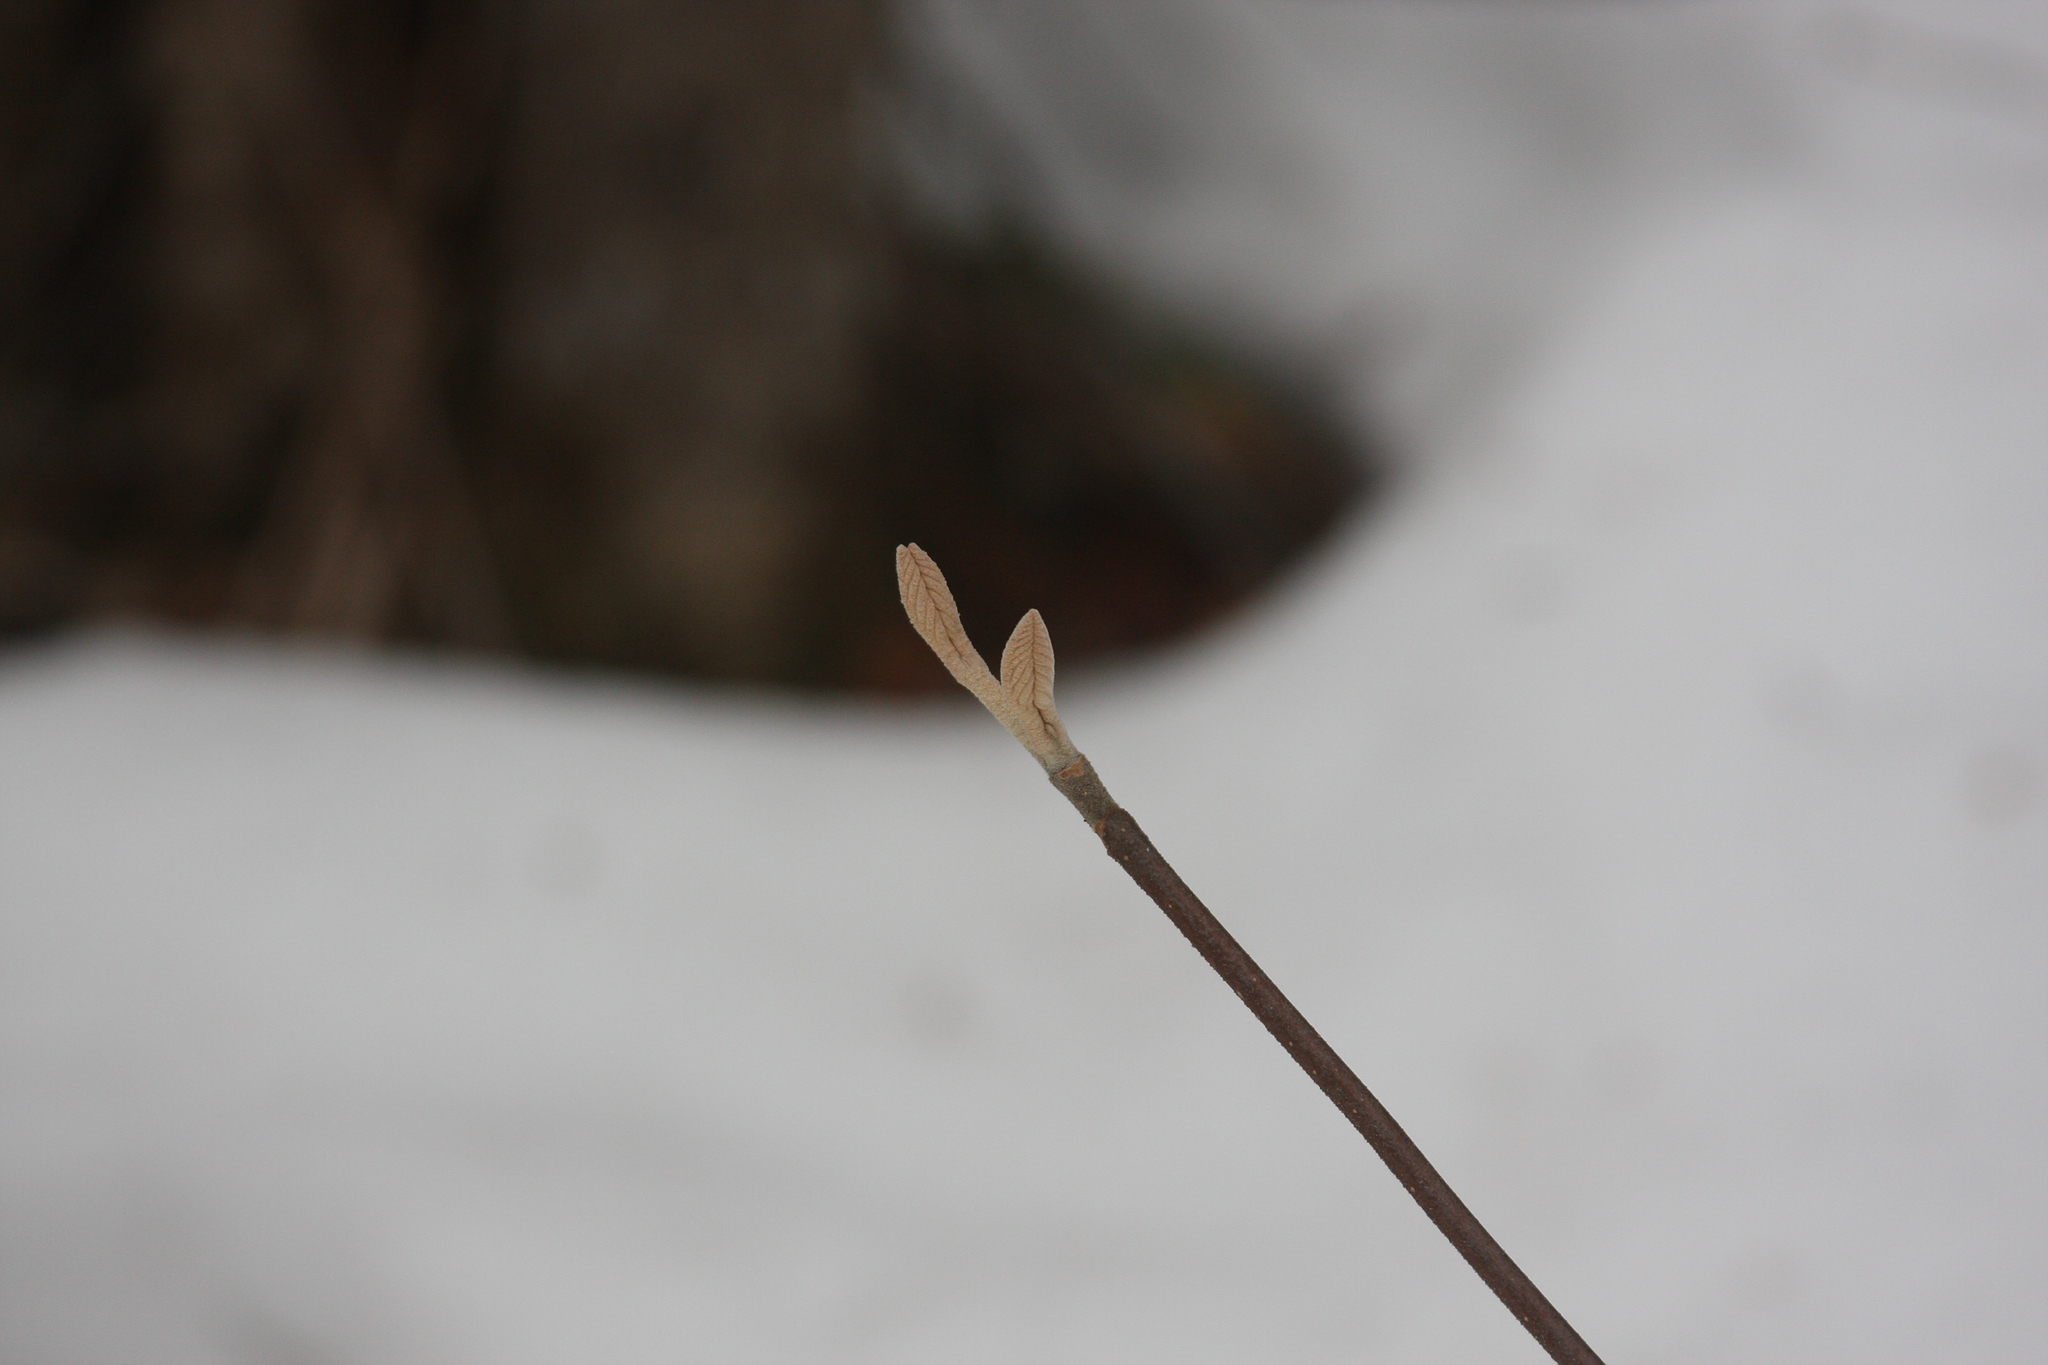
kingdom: Plantae
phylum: Tracheophyta
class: Magnoliopsida
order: Dipsacales
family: Viburnaceae
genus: Viburnum
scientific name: Viburnum lantanoides
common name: Hobblebush
